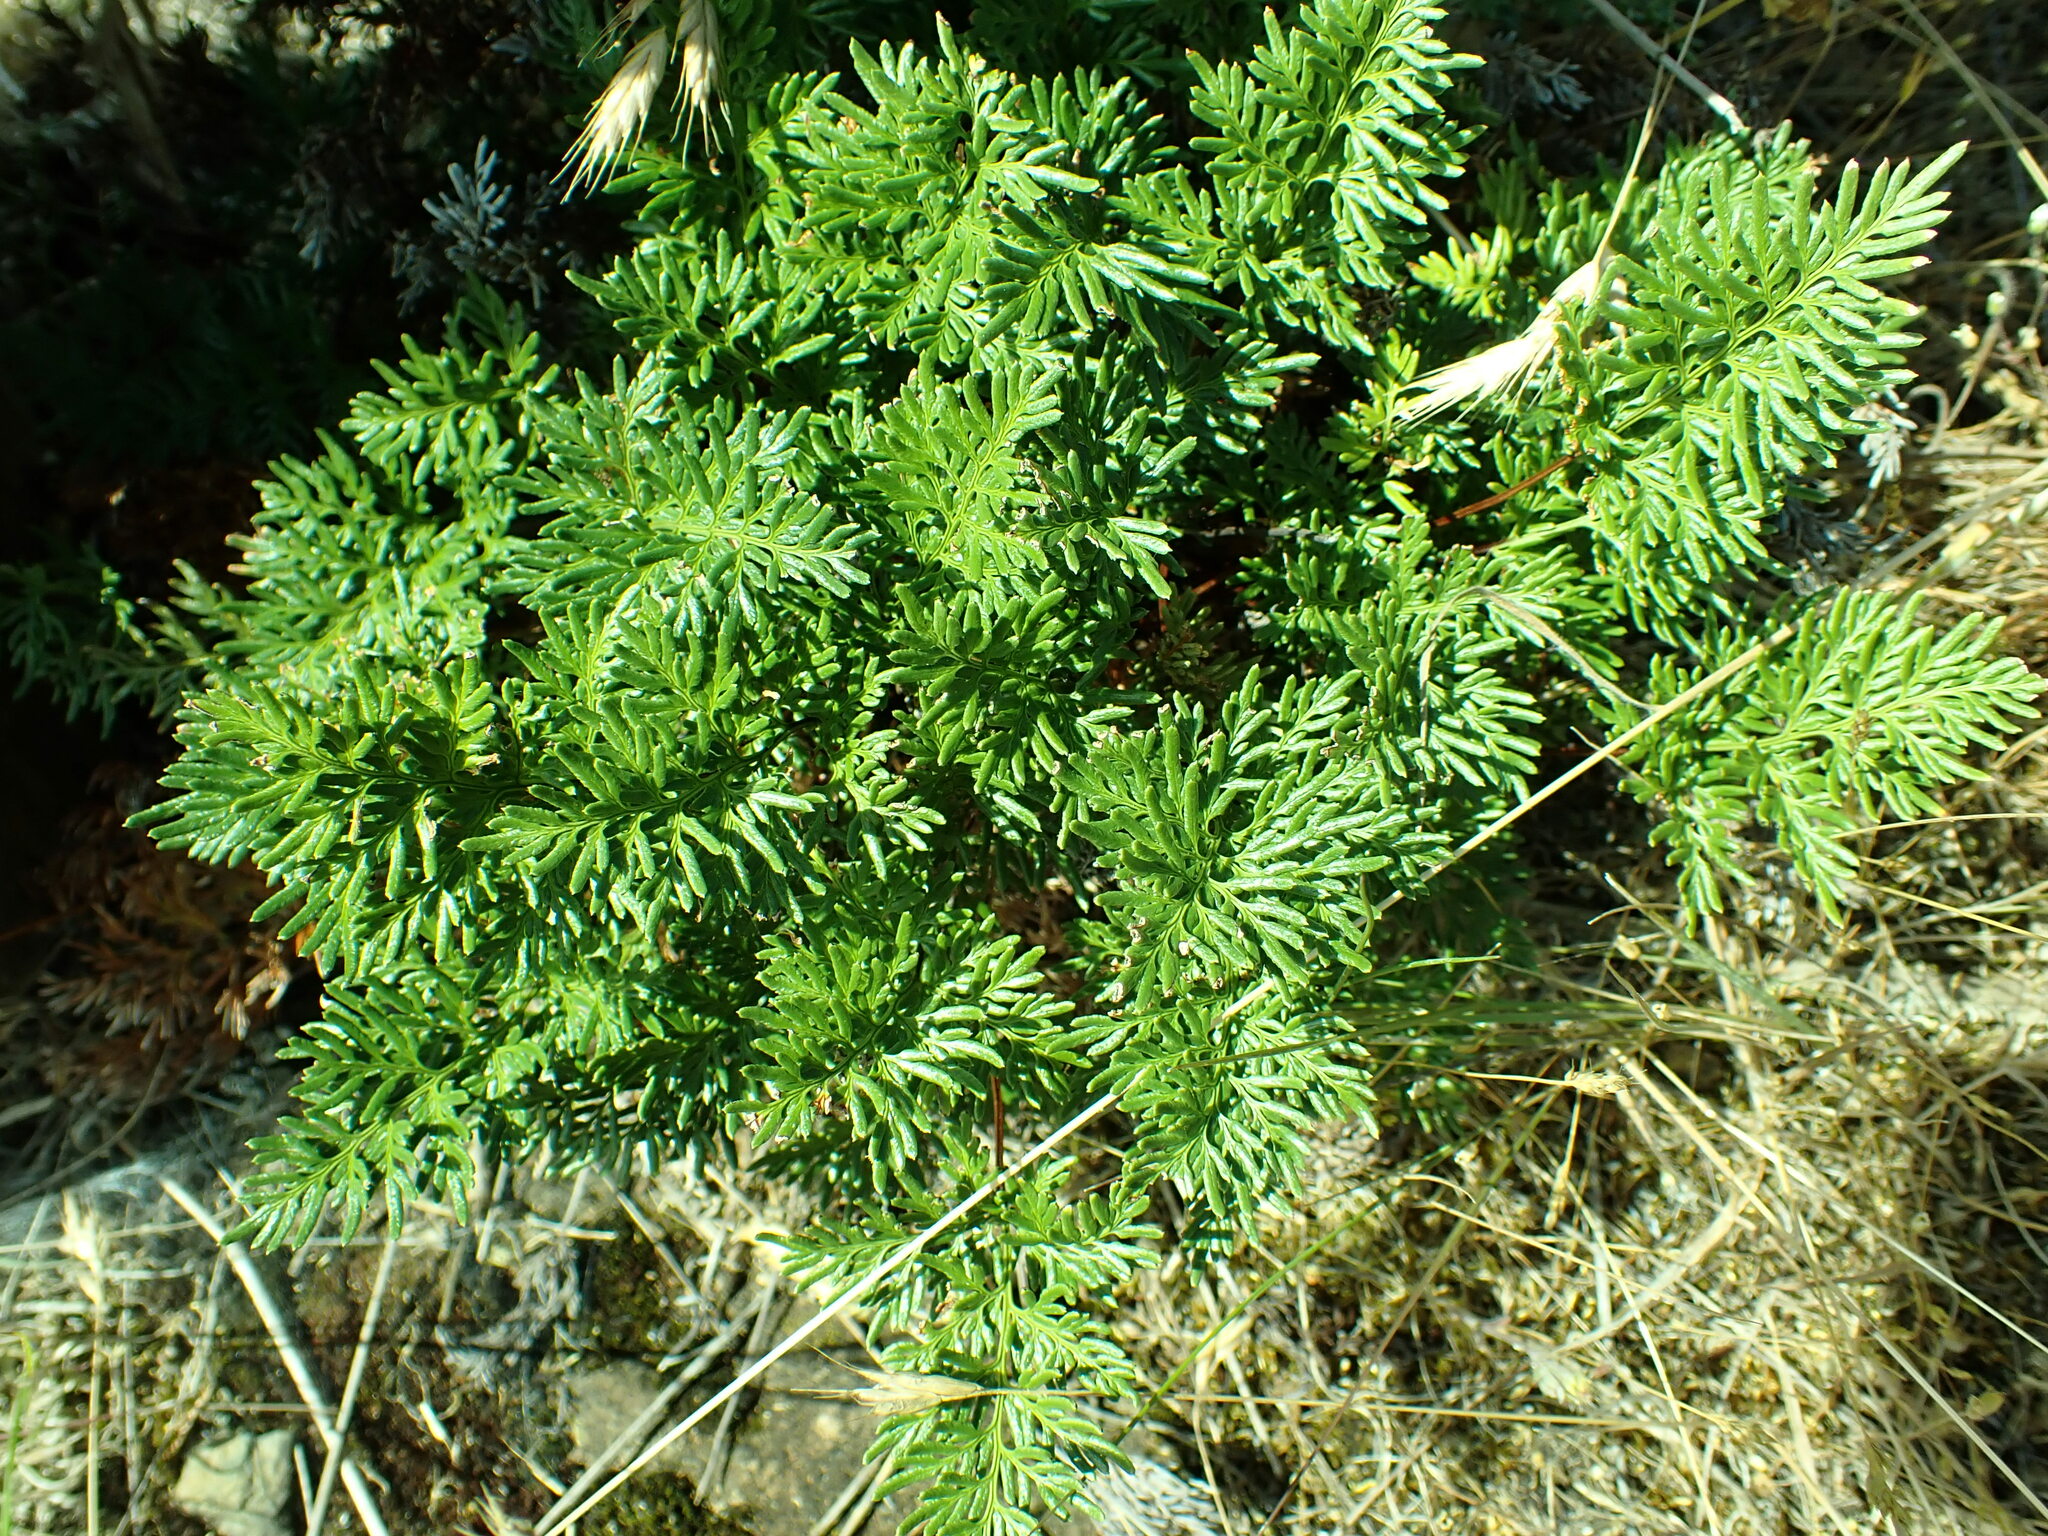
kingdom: Plantae
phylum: Tracheophyta
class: Polypodiopsida
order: Polypodiales
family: Pteridaceae
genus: Aspidotis
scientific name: Aspidotis densa
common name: Indian's dream
